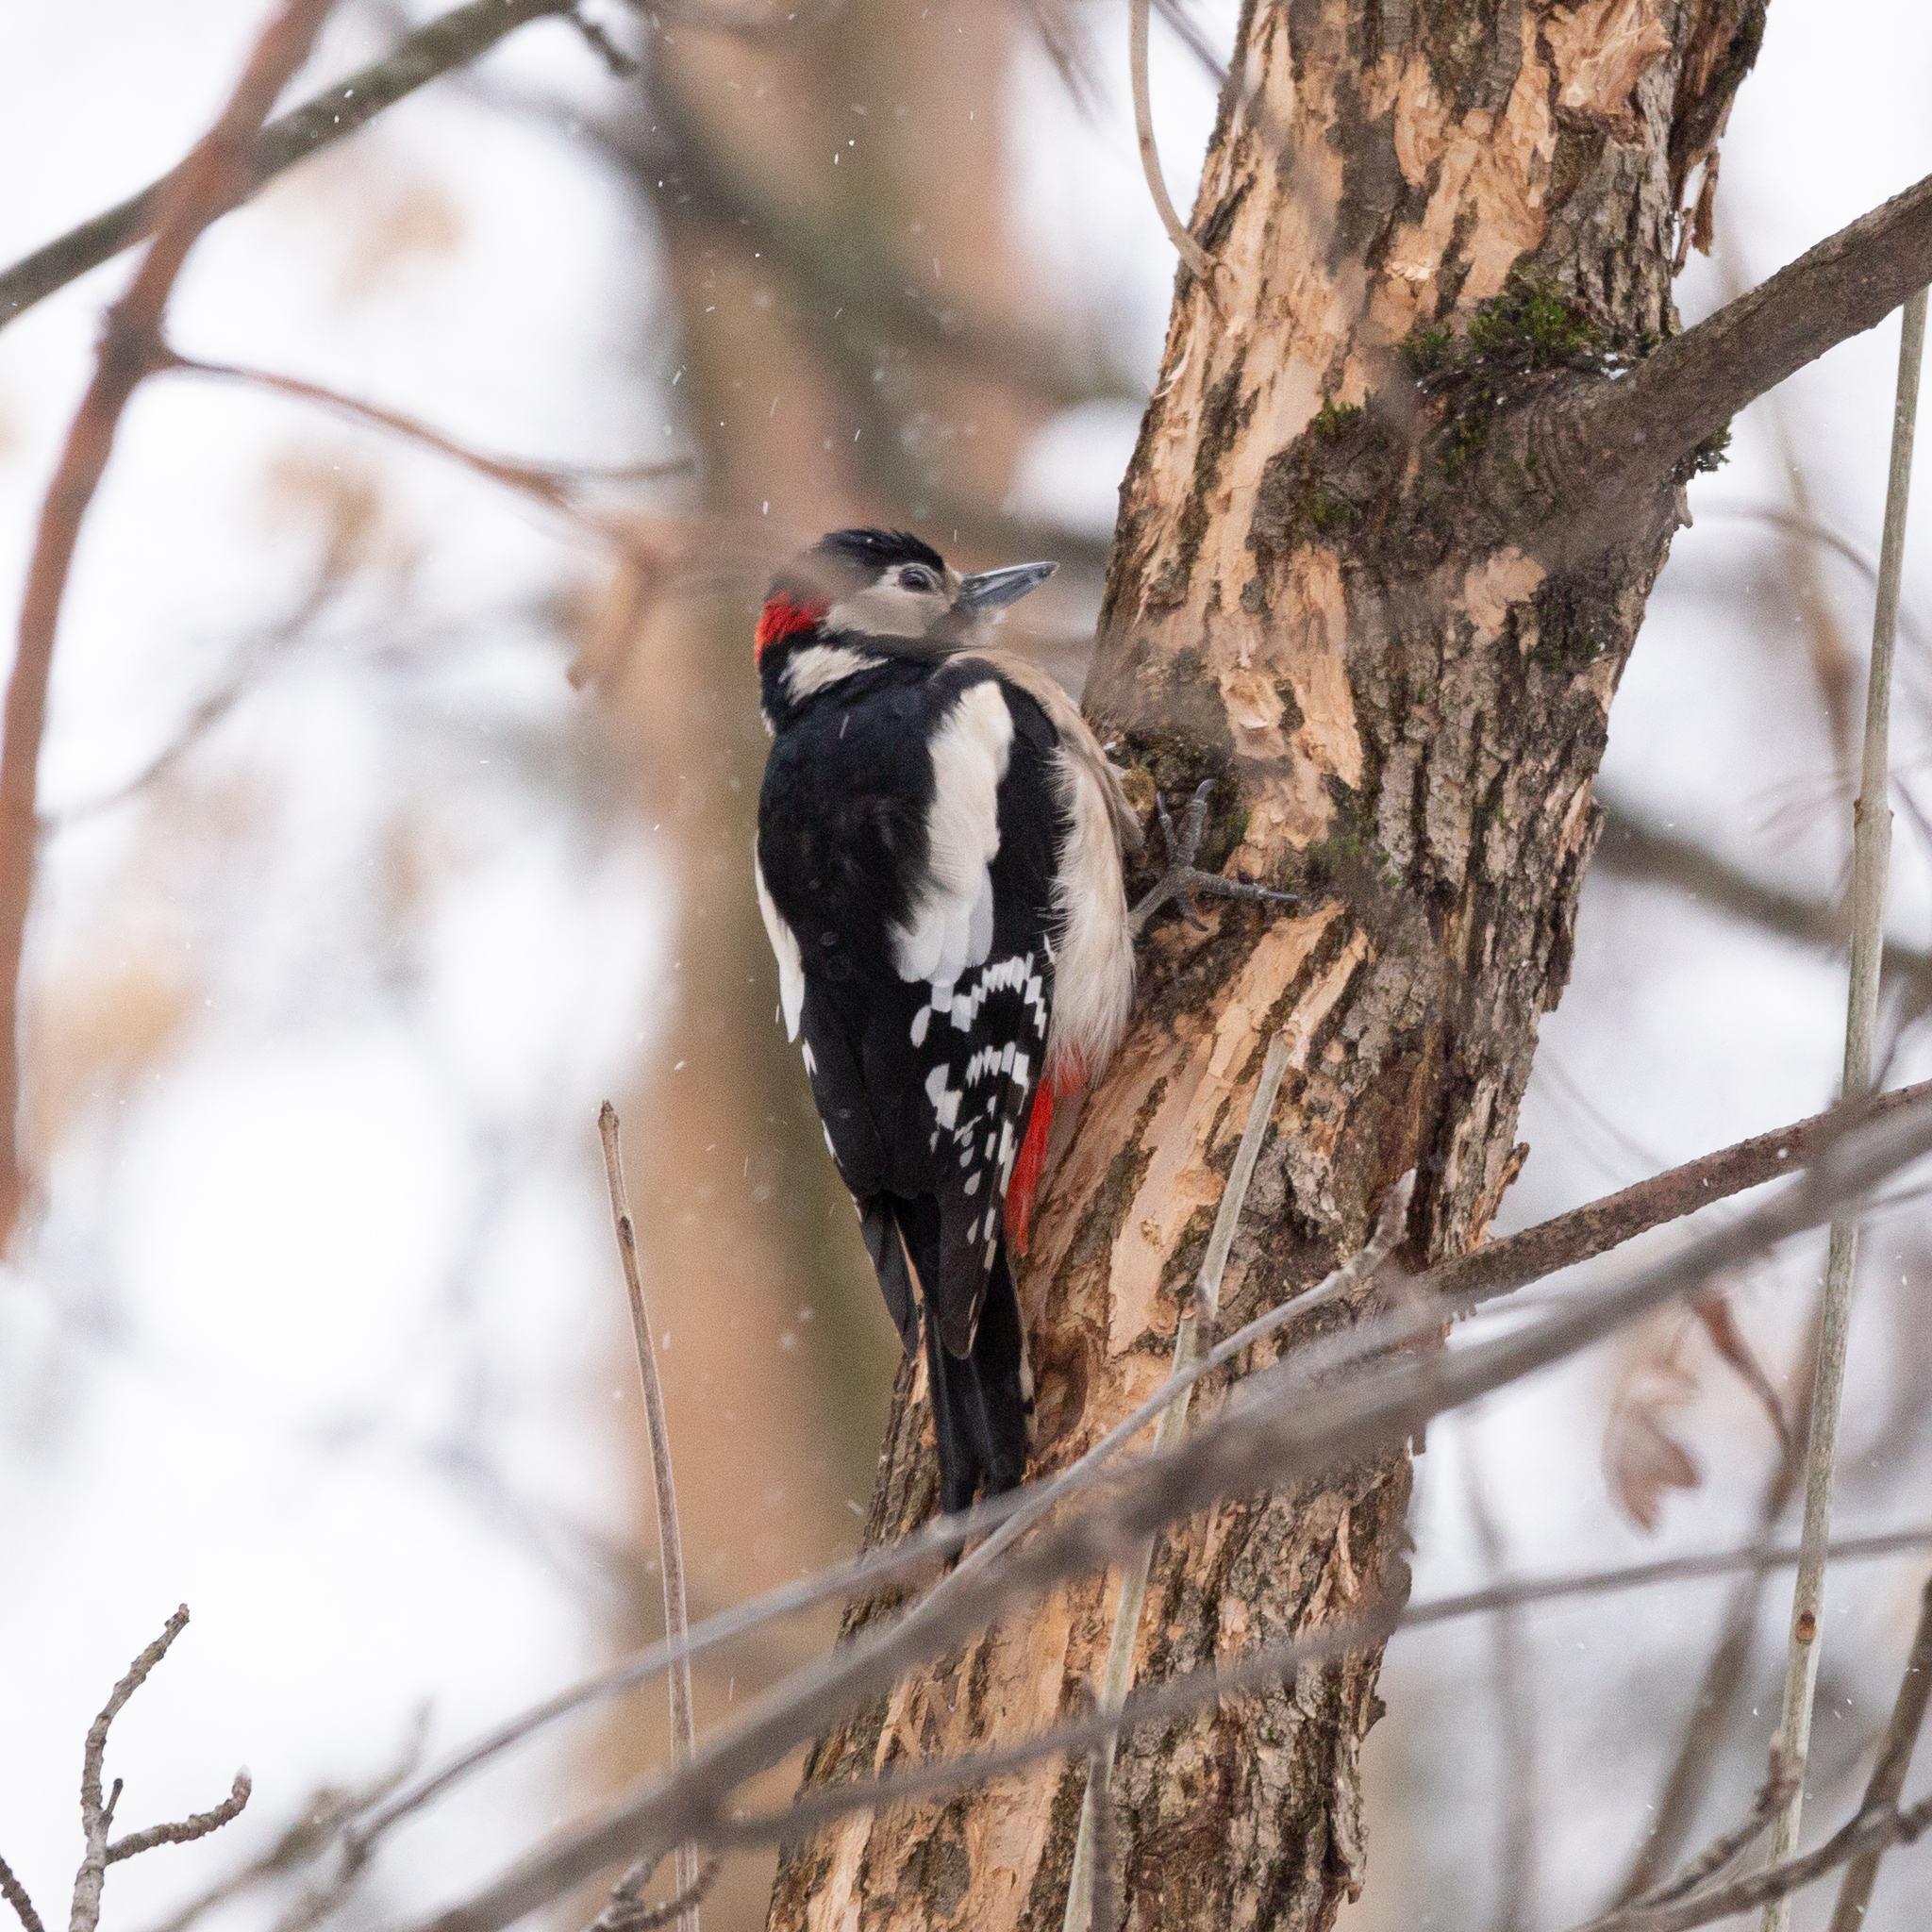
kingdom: Animalia
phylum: Chordata
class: Aves
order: Piciformes
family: Picidae
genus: Dendrocopos
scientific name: Dendrocopos major
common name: Great spotted woodpecker
